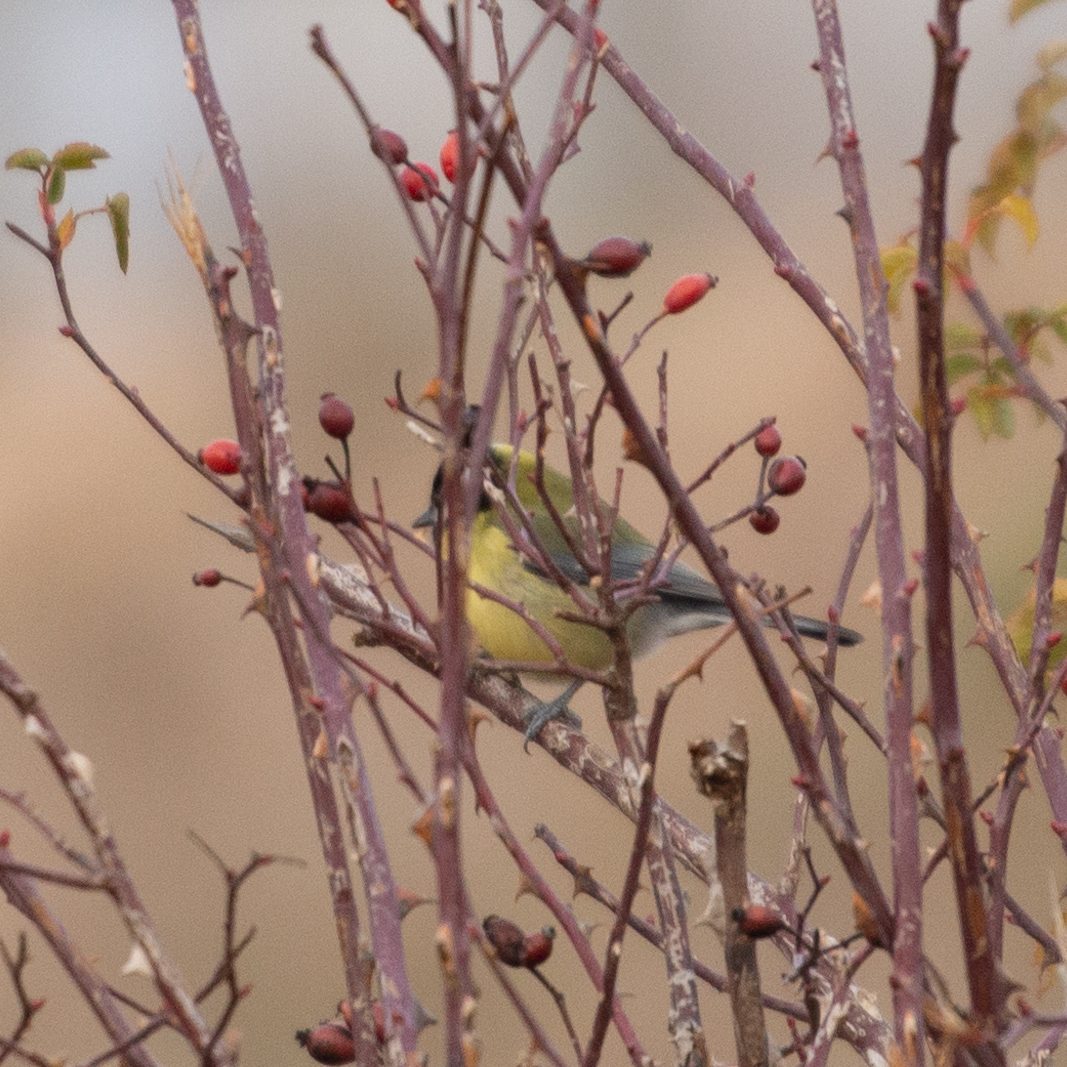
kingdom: Animalia
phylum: Chordata
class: Aves
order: Passeriformes
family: Paridae
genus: Parus
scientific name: Parus major
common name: Great tit
